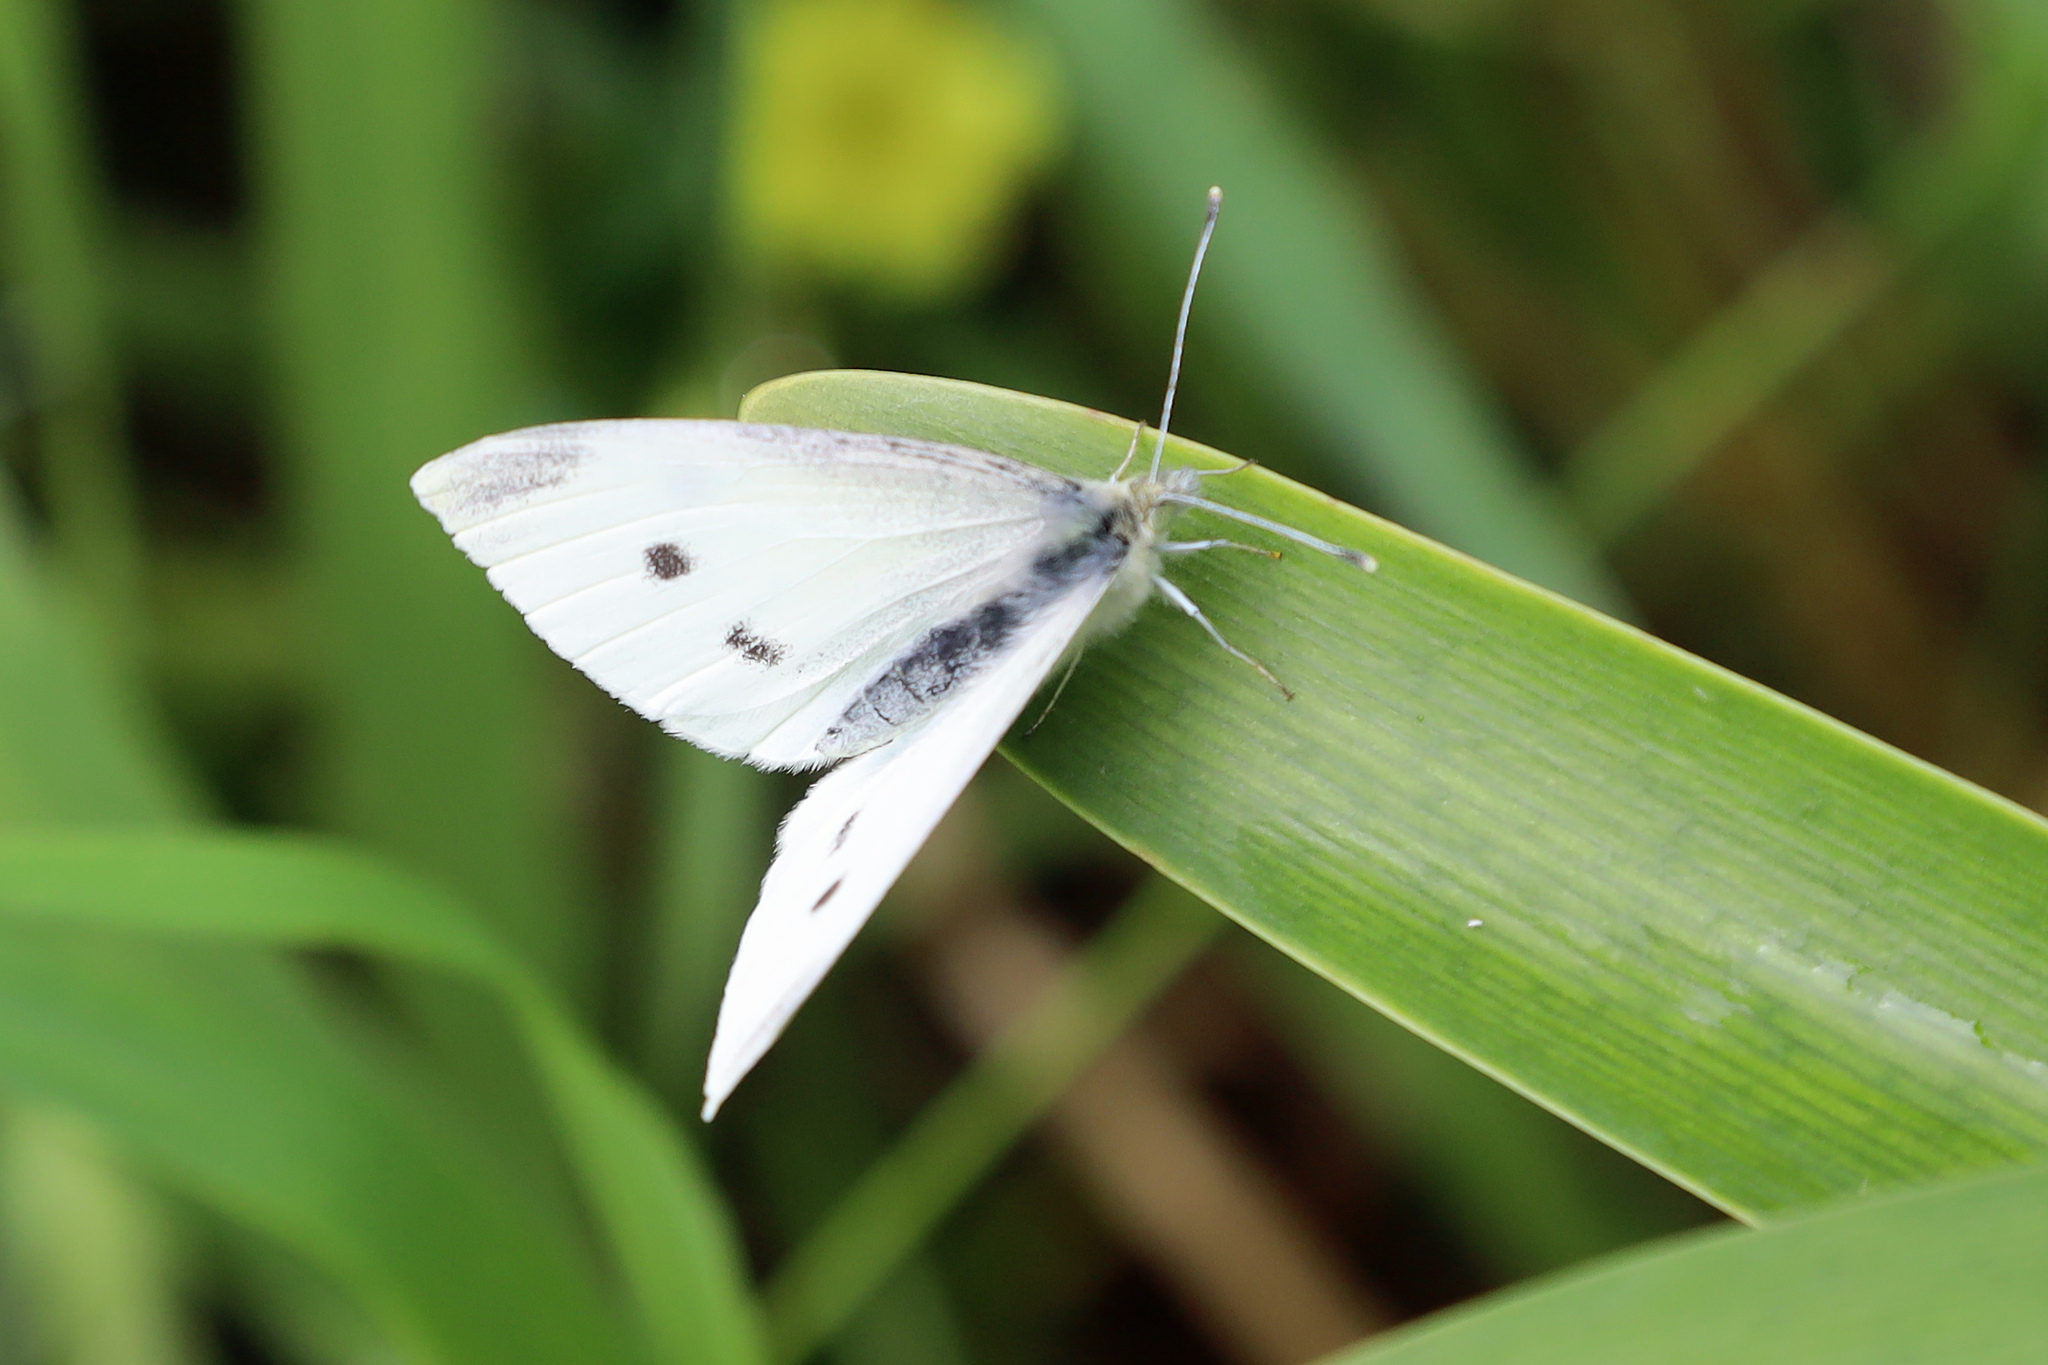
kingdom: Animalia
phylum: Arthropoda
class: Insecta
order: Lepidoptera
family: Pieridae
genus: Pieris
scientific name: Pieris rapae
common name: Small white
